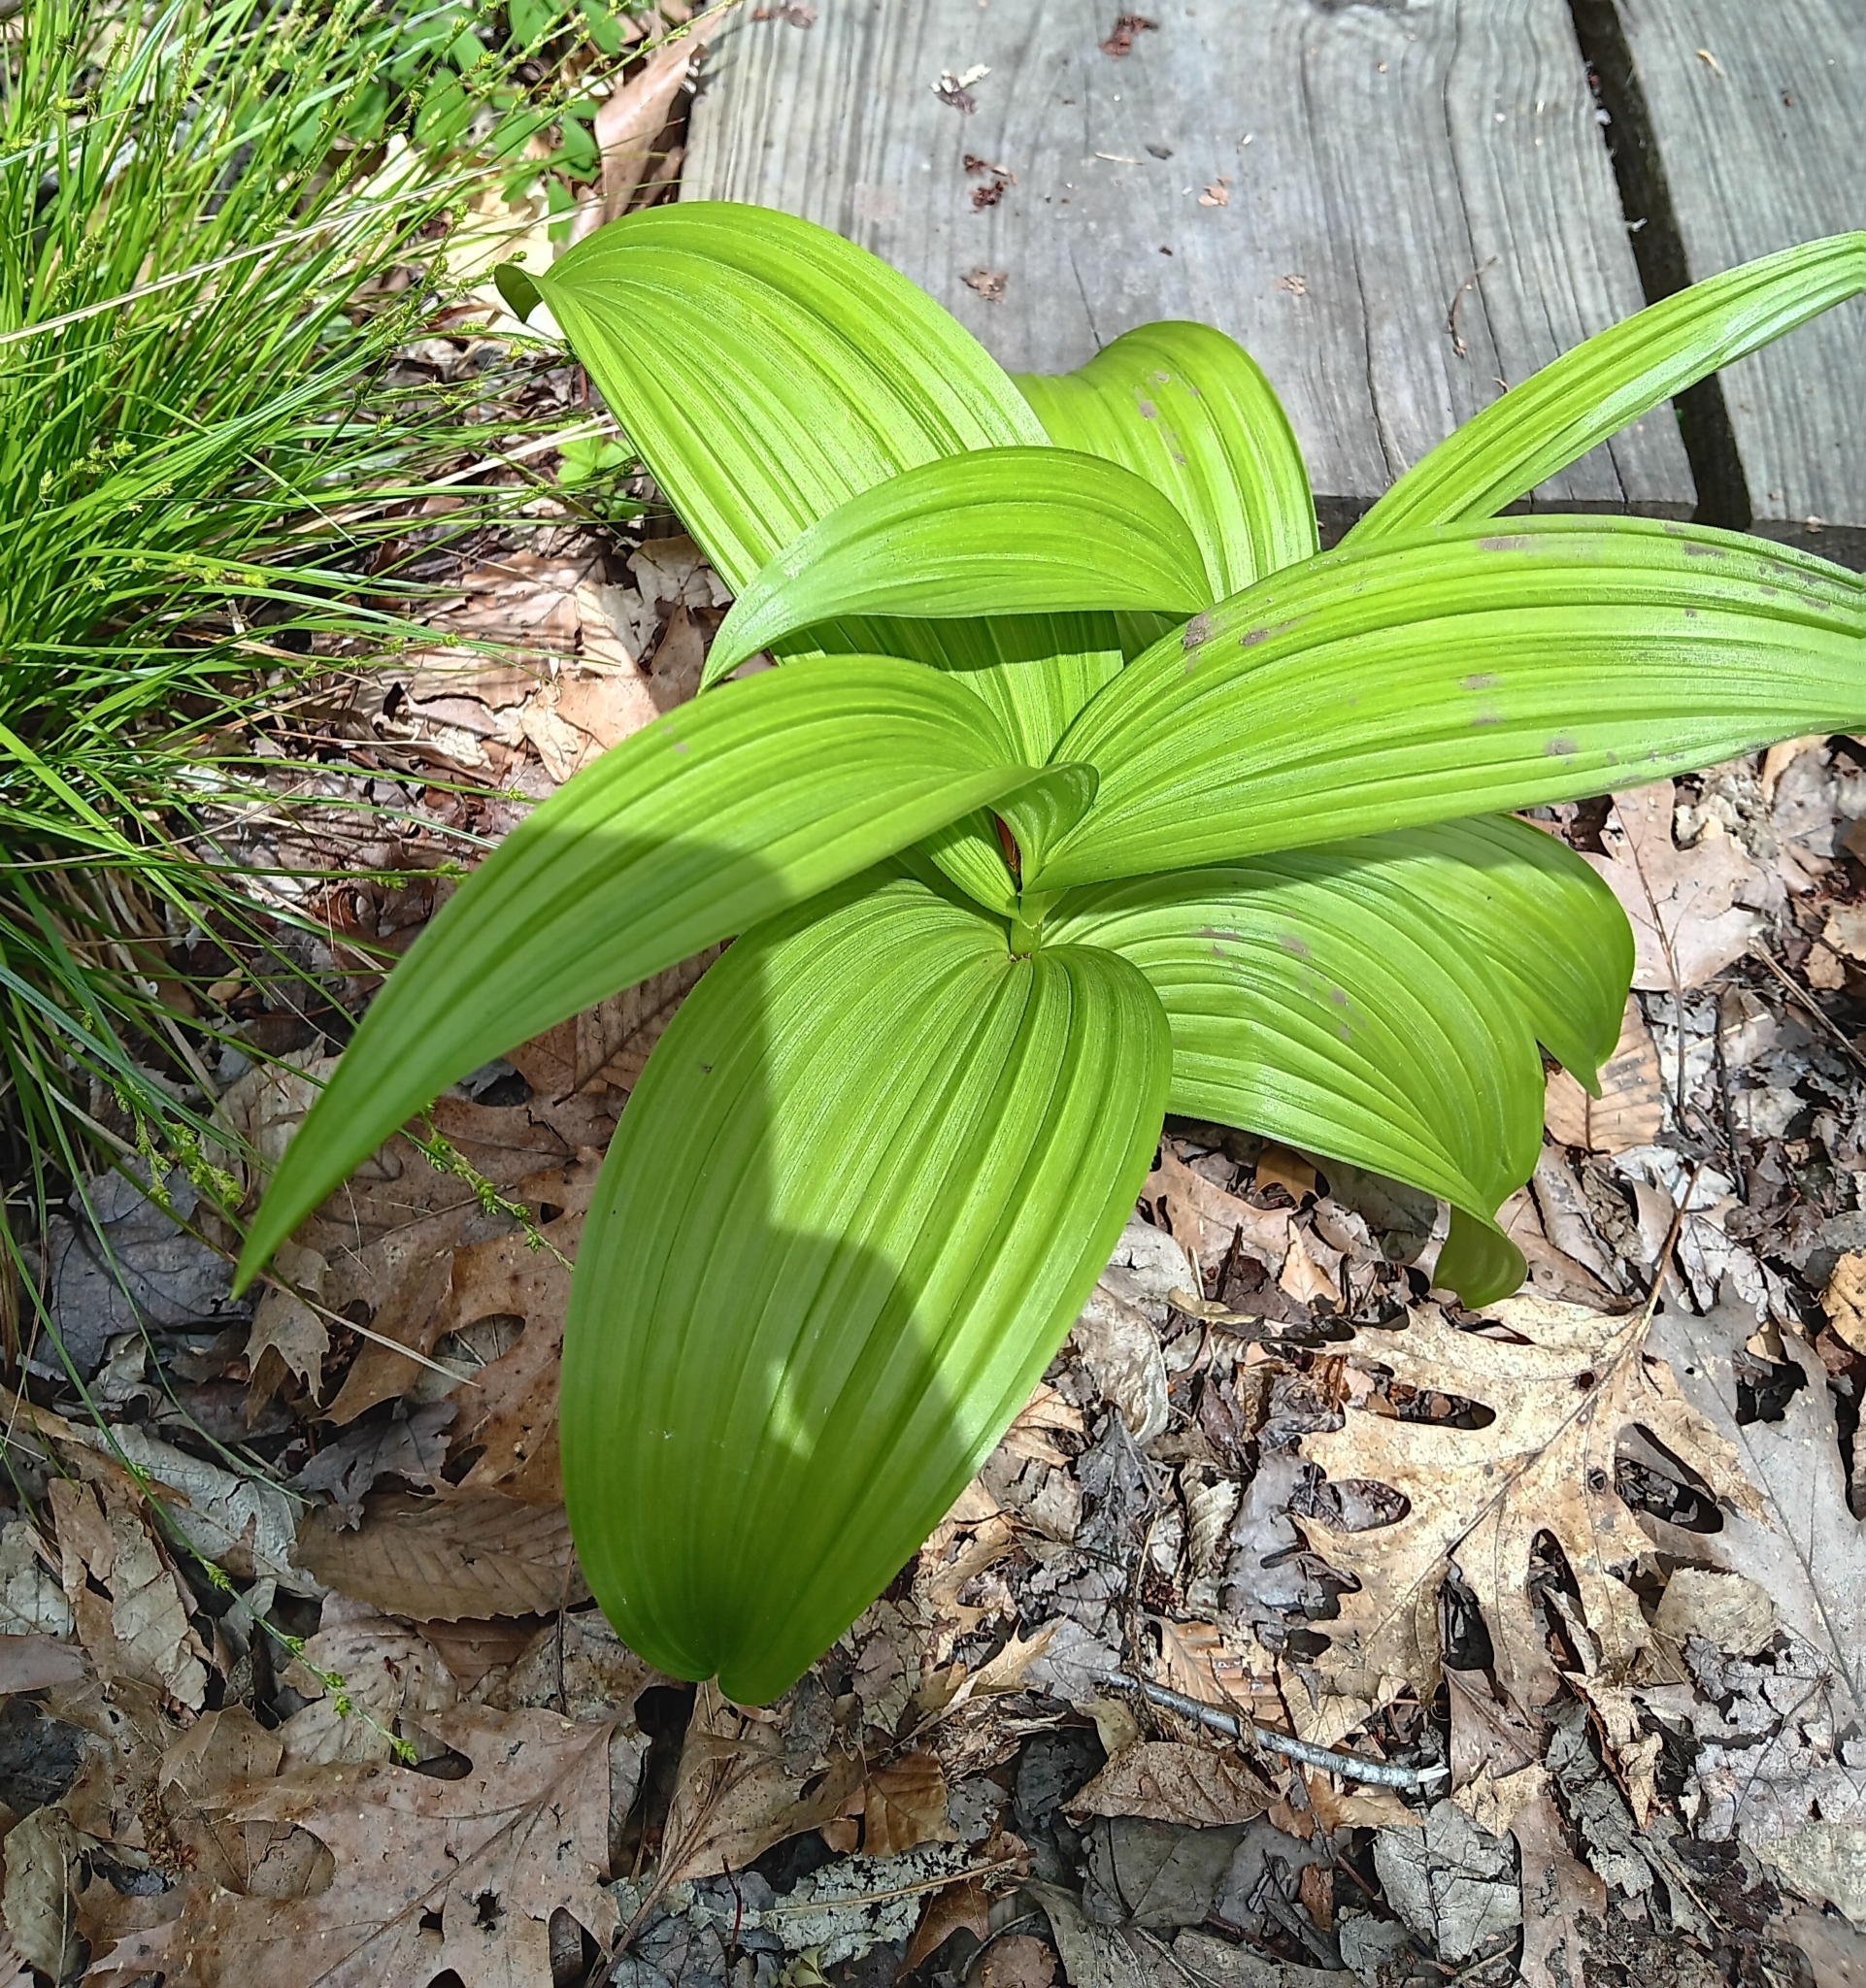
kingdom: Plantae
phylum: Tracheophyta
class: Liliopsida
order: Liliales
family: Melanthiaceae
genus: Veratrum
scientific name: Veratrum viride
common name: American false hellebore
